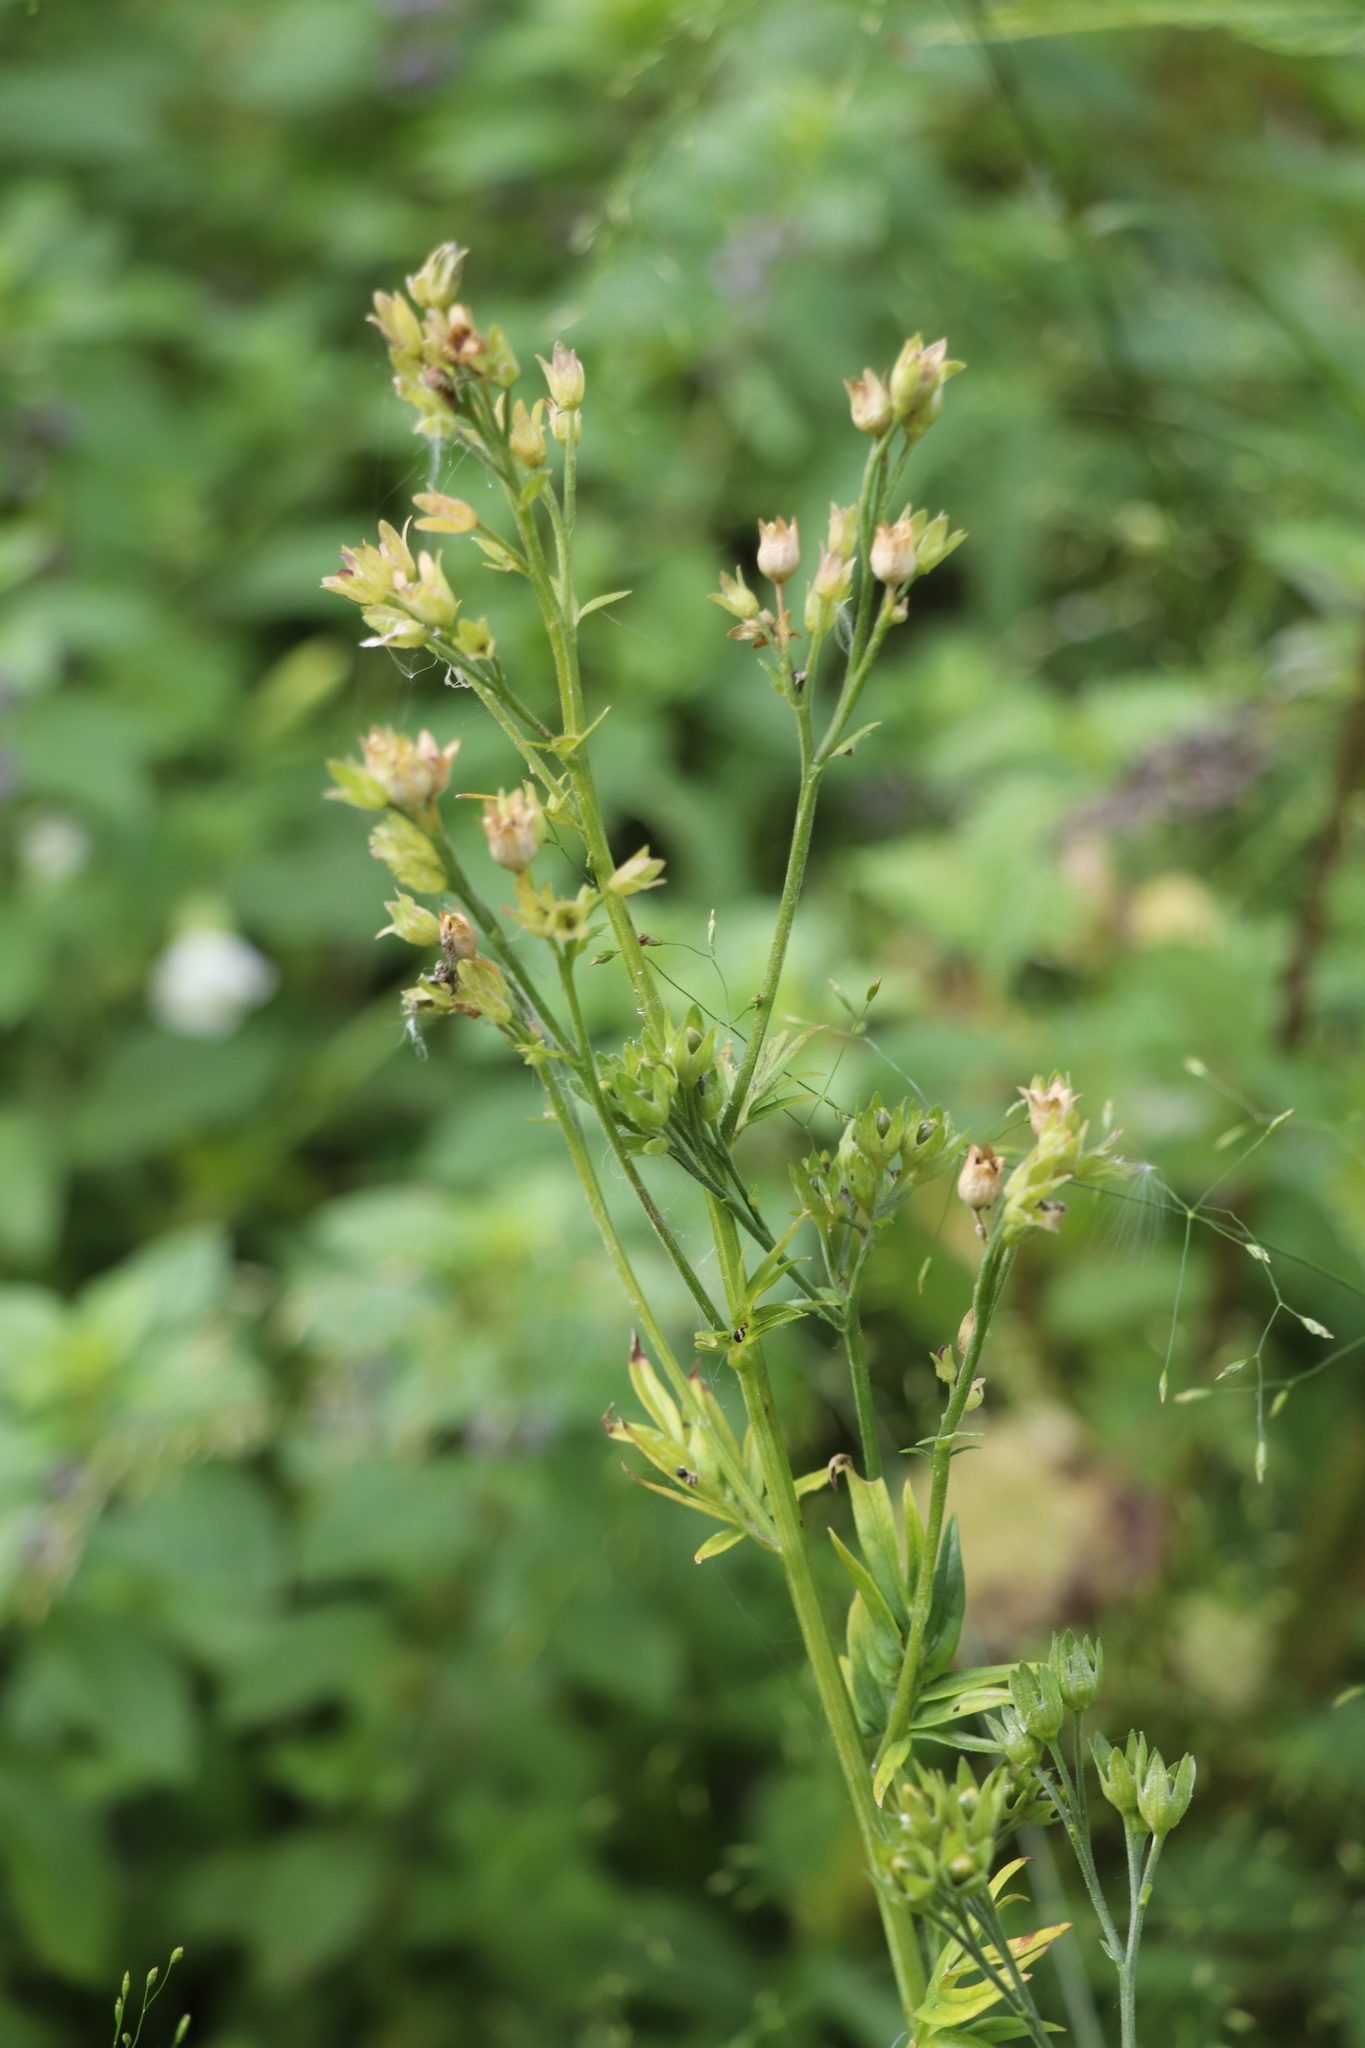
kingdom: Plantae
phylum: Tracheophyta
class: Magnoliopsida
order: Ericales
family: Polemoniaceae
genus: Polemonium
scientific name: Polemonium caeruleum
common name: Jacob's-ladder
